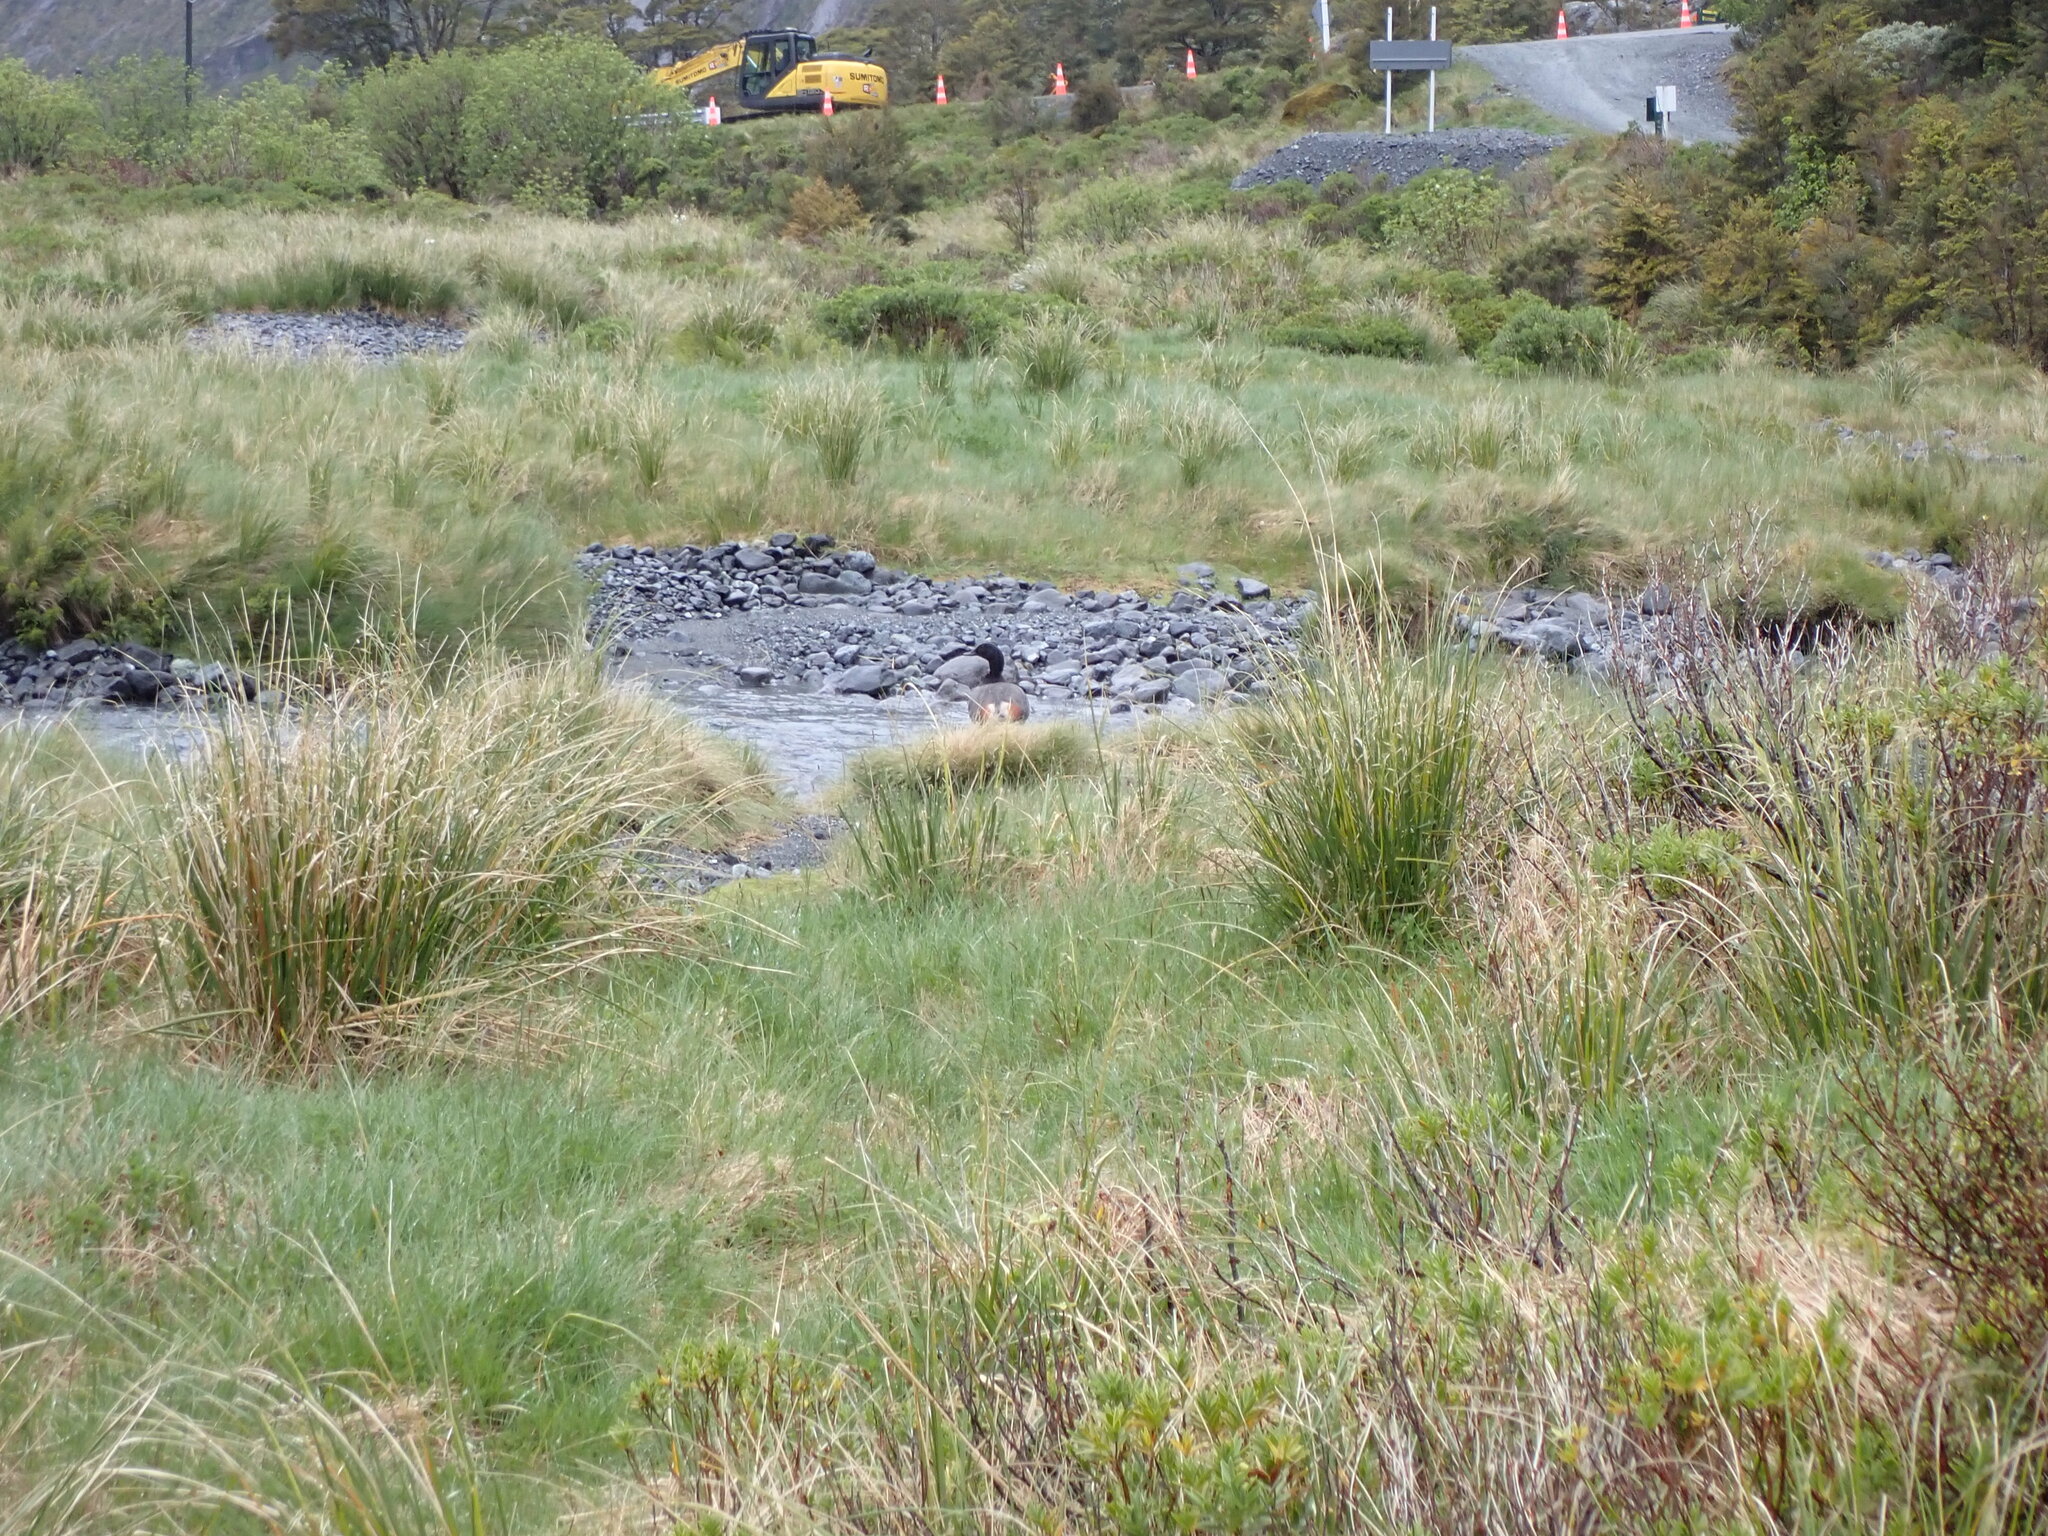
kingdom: Animalia
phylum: Chordata
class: Aves
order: Anseriformes
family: Anatidae
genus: Tadorna
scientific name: Tadorna variegata
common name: Paradise shelduck
